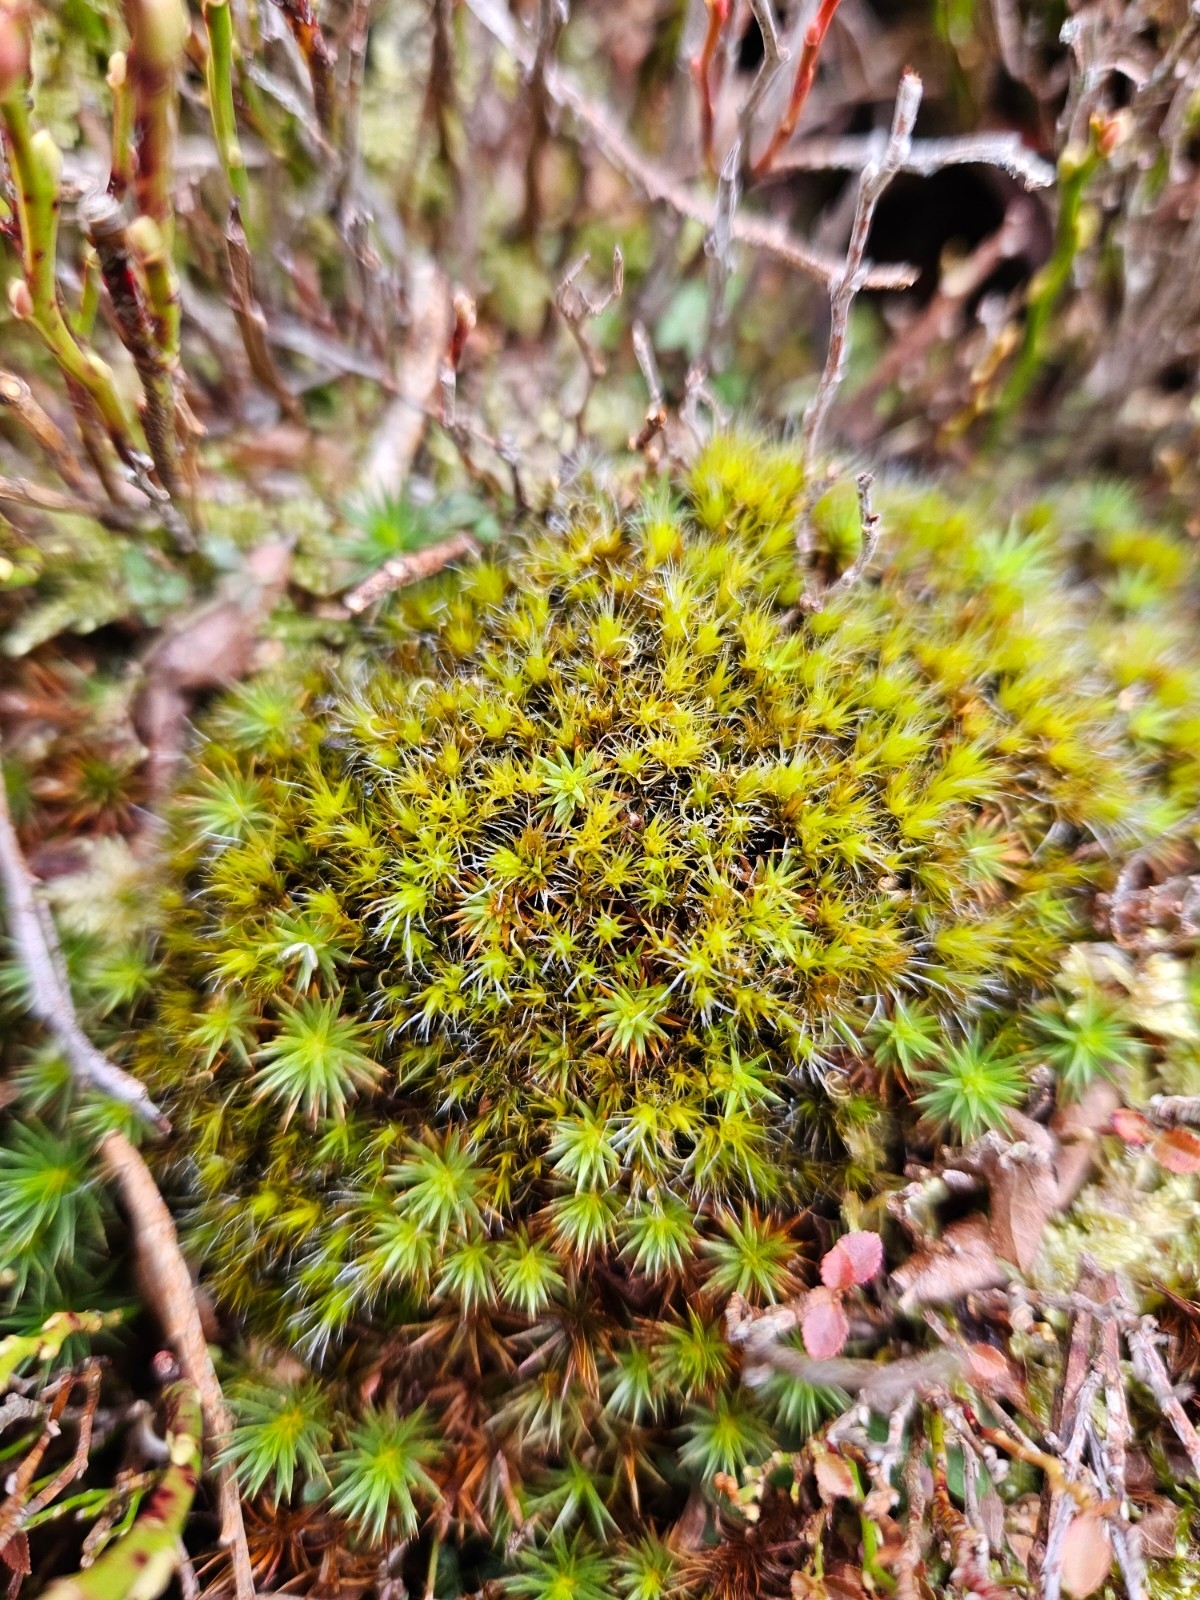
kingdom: Plantae
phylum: Bryophyta
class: Bryopsida
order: Dicranales
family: Leucobryaceae
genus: Campylopus
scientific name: Campylopus introflexus
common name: Heath star moss
